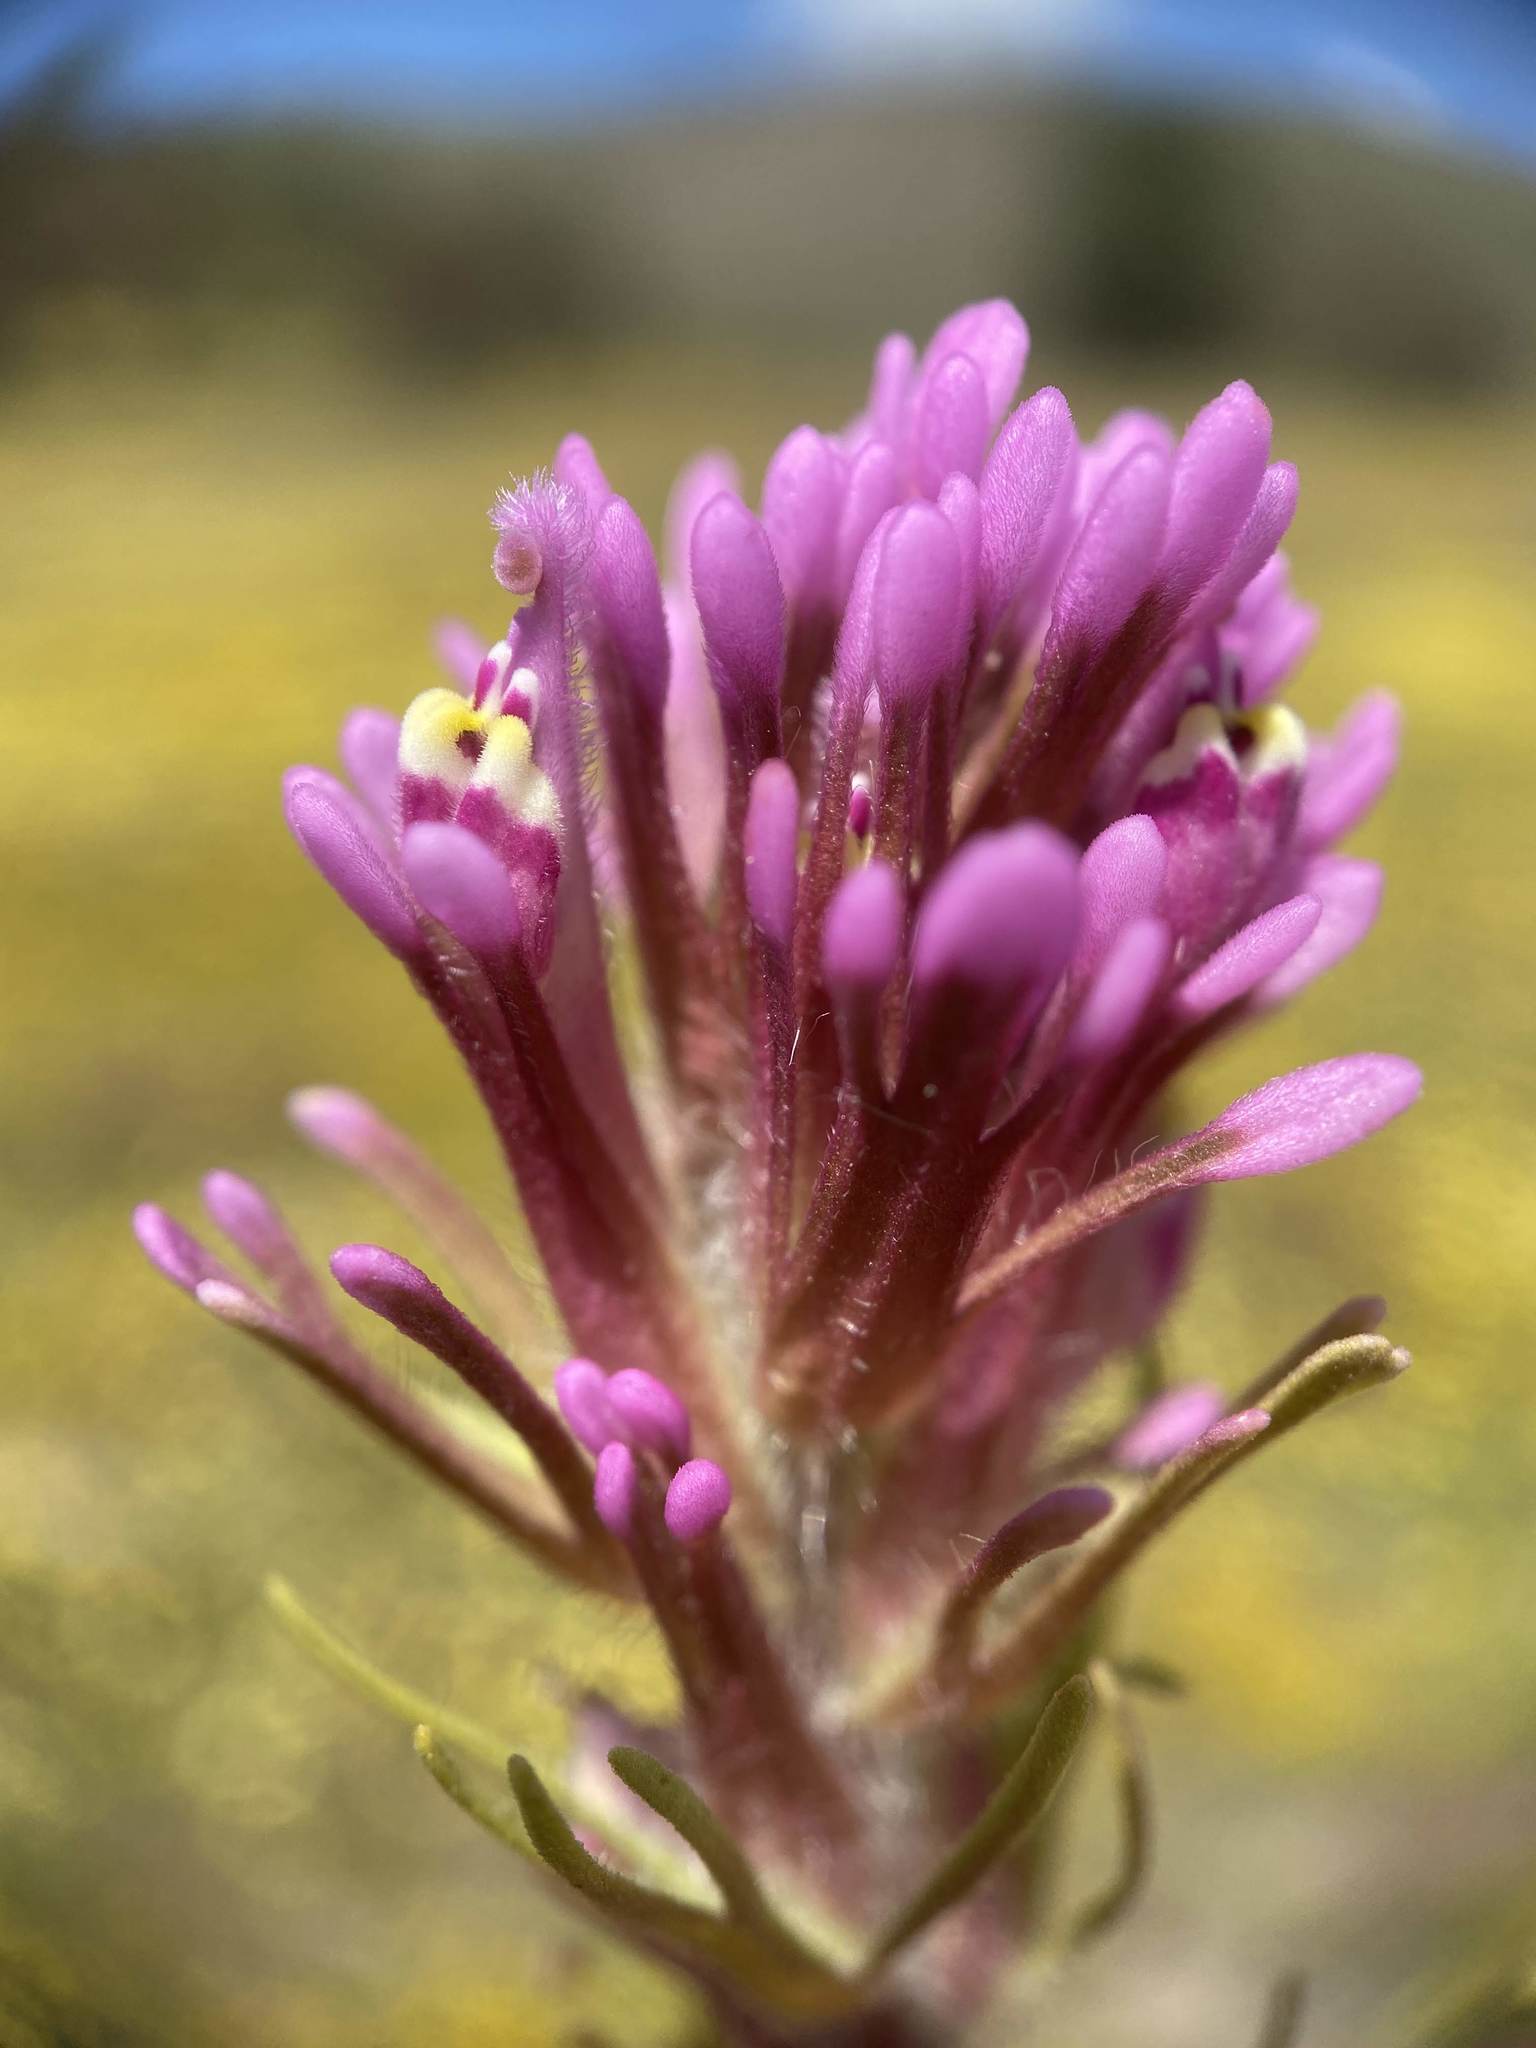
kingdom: Plantae
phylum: Tracheophyta
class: Magnoliopsida
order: Lamiales
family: Orobanchaceae
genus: Castilleja
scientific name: Castilleja exserta
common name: Purple owl-clover
